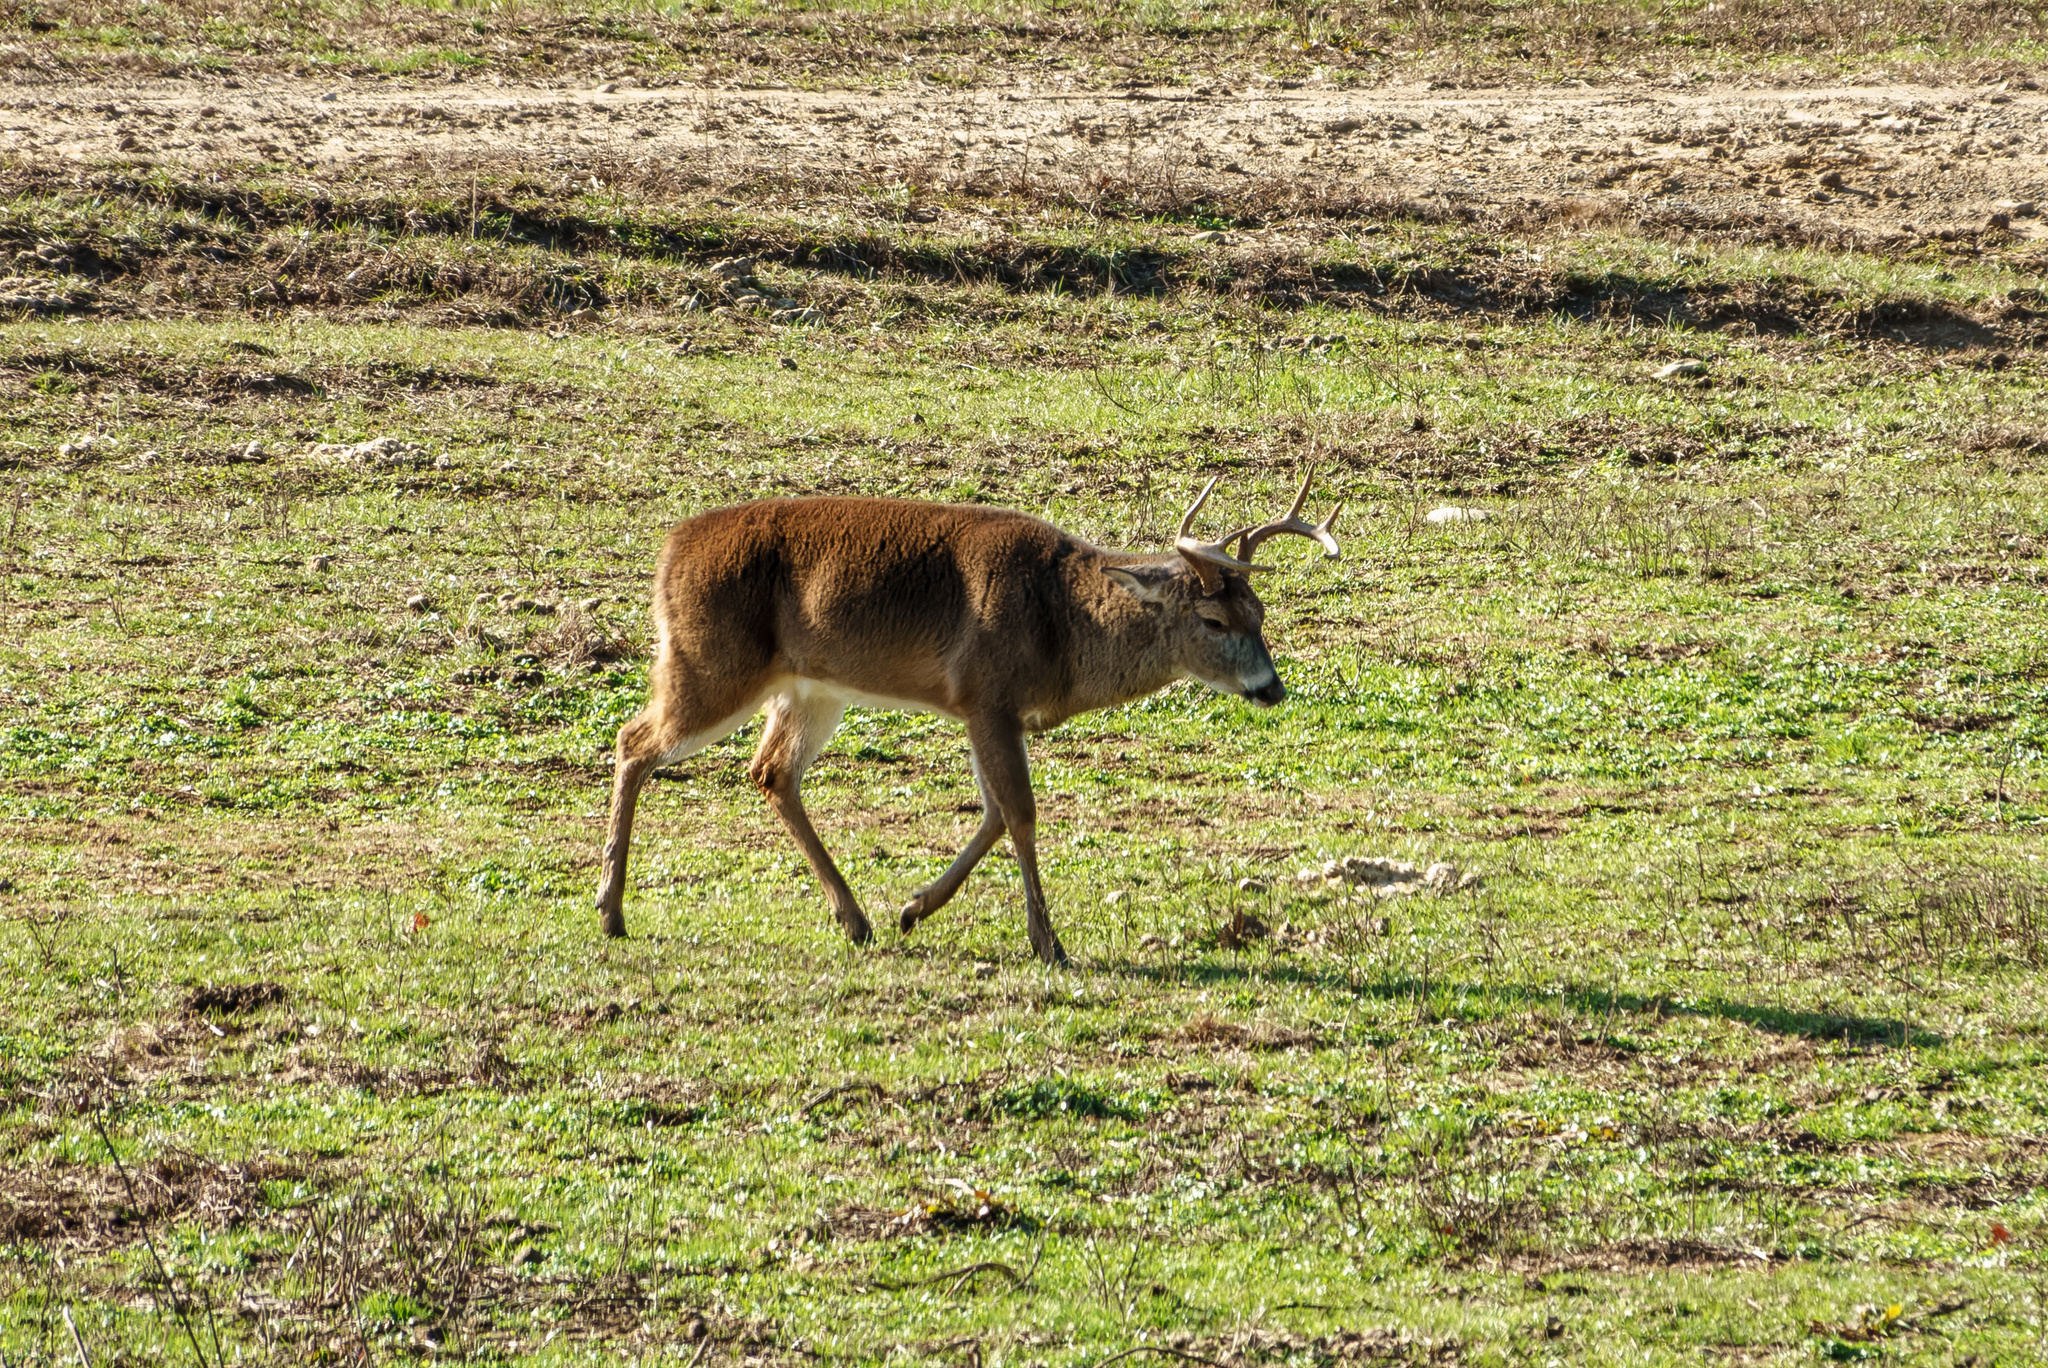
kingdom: Animalia
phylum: Chordata
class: Mammalia
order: Artiodactyla
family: Cervidae
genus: Odocoileus
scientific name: Odocoileus virginianus
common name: White-tailed deer
